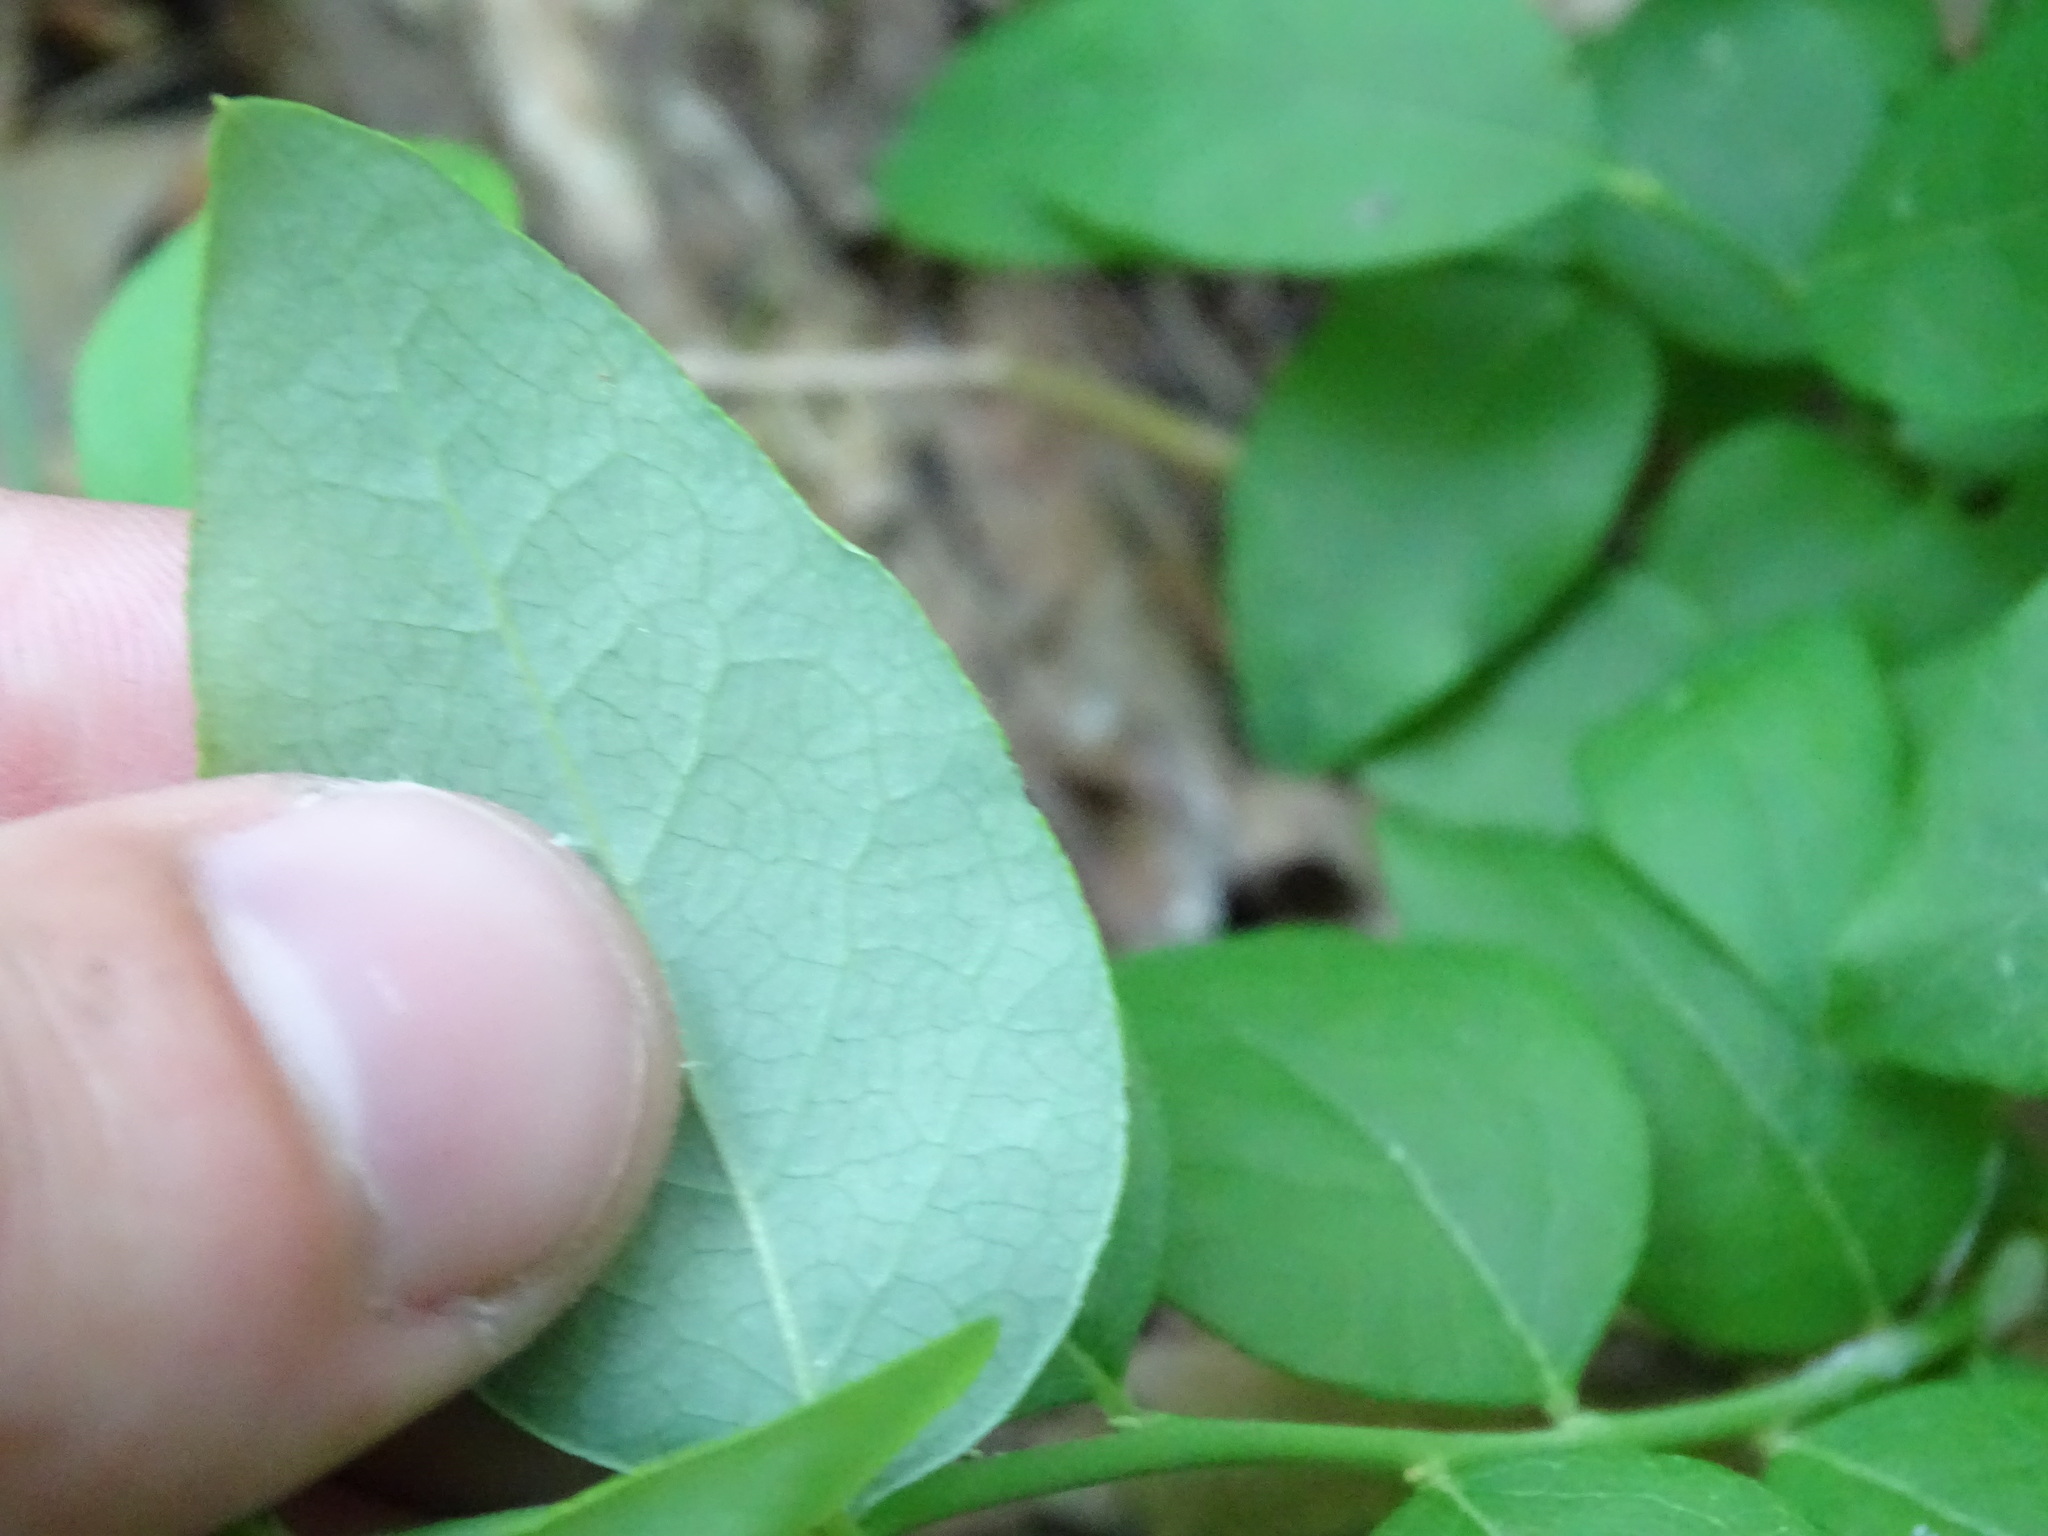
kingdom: Plantae
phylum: Tracheophyta
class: Magnoliopsida
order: Ericales
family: Ericaceae
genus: Vaccinium
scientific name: Vaccinium pallidum
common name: Blue ridge blueberry
